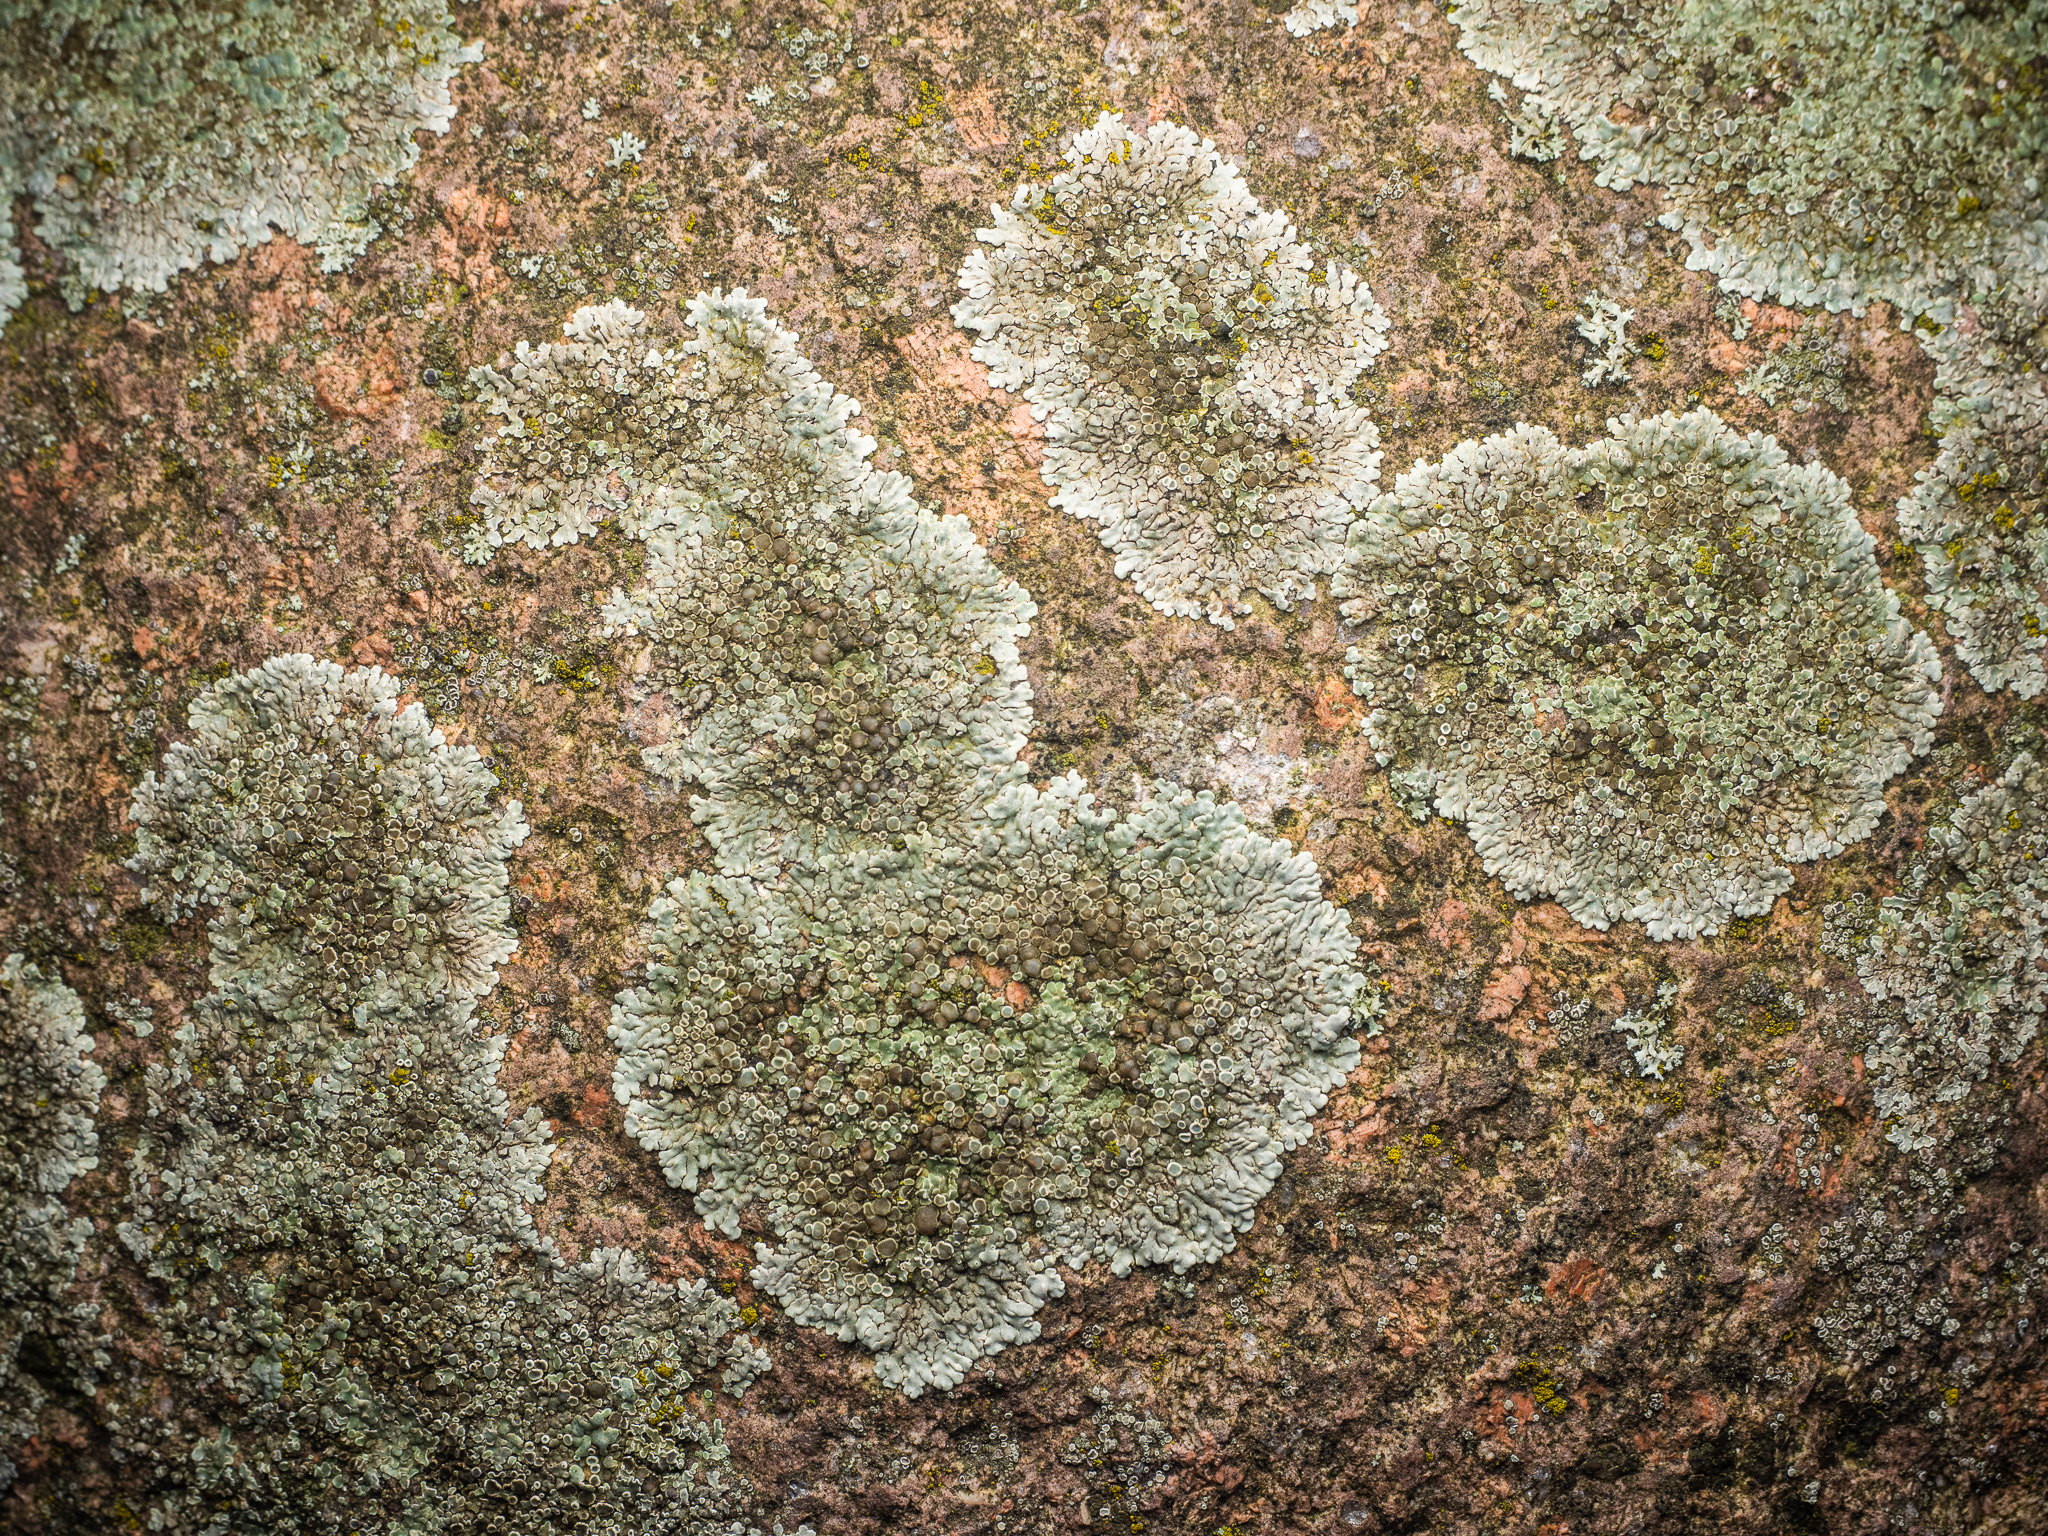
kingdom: Fungi
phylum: Ascomycota
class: Lecanoromycetes
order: Lecanorales
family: Lecanoraceae
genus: Protoparmeliopsis
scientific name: Protoparmeliopsis muralis
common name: Stonewall rim lichen
